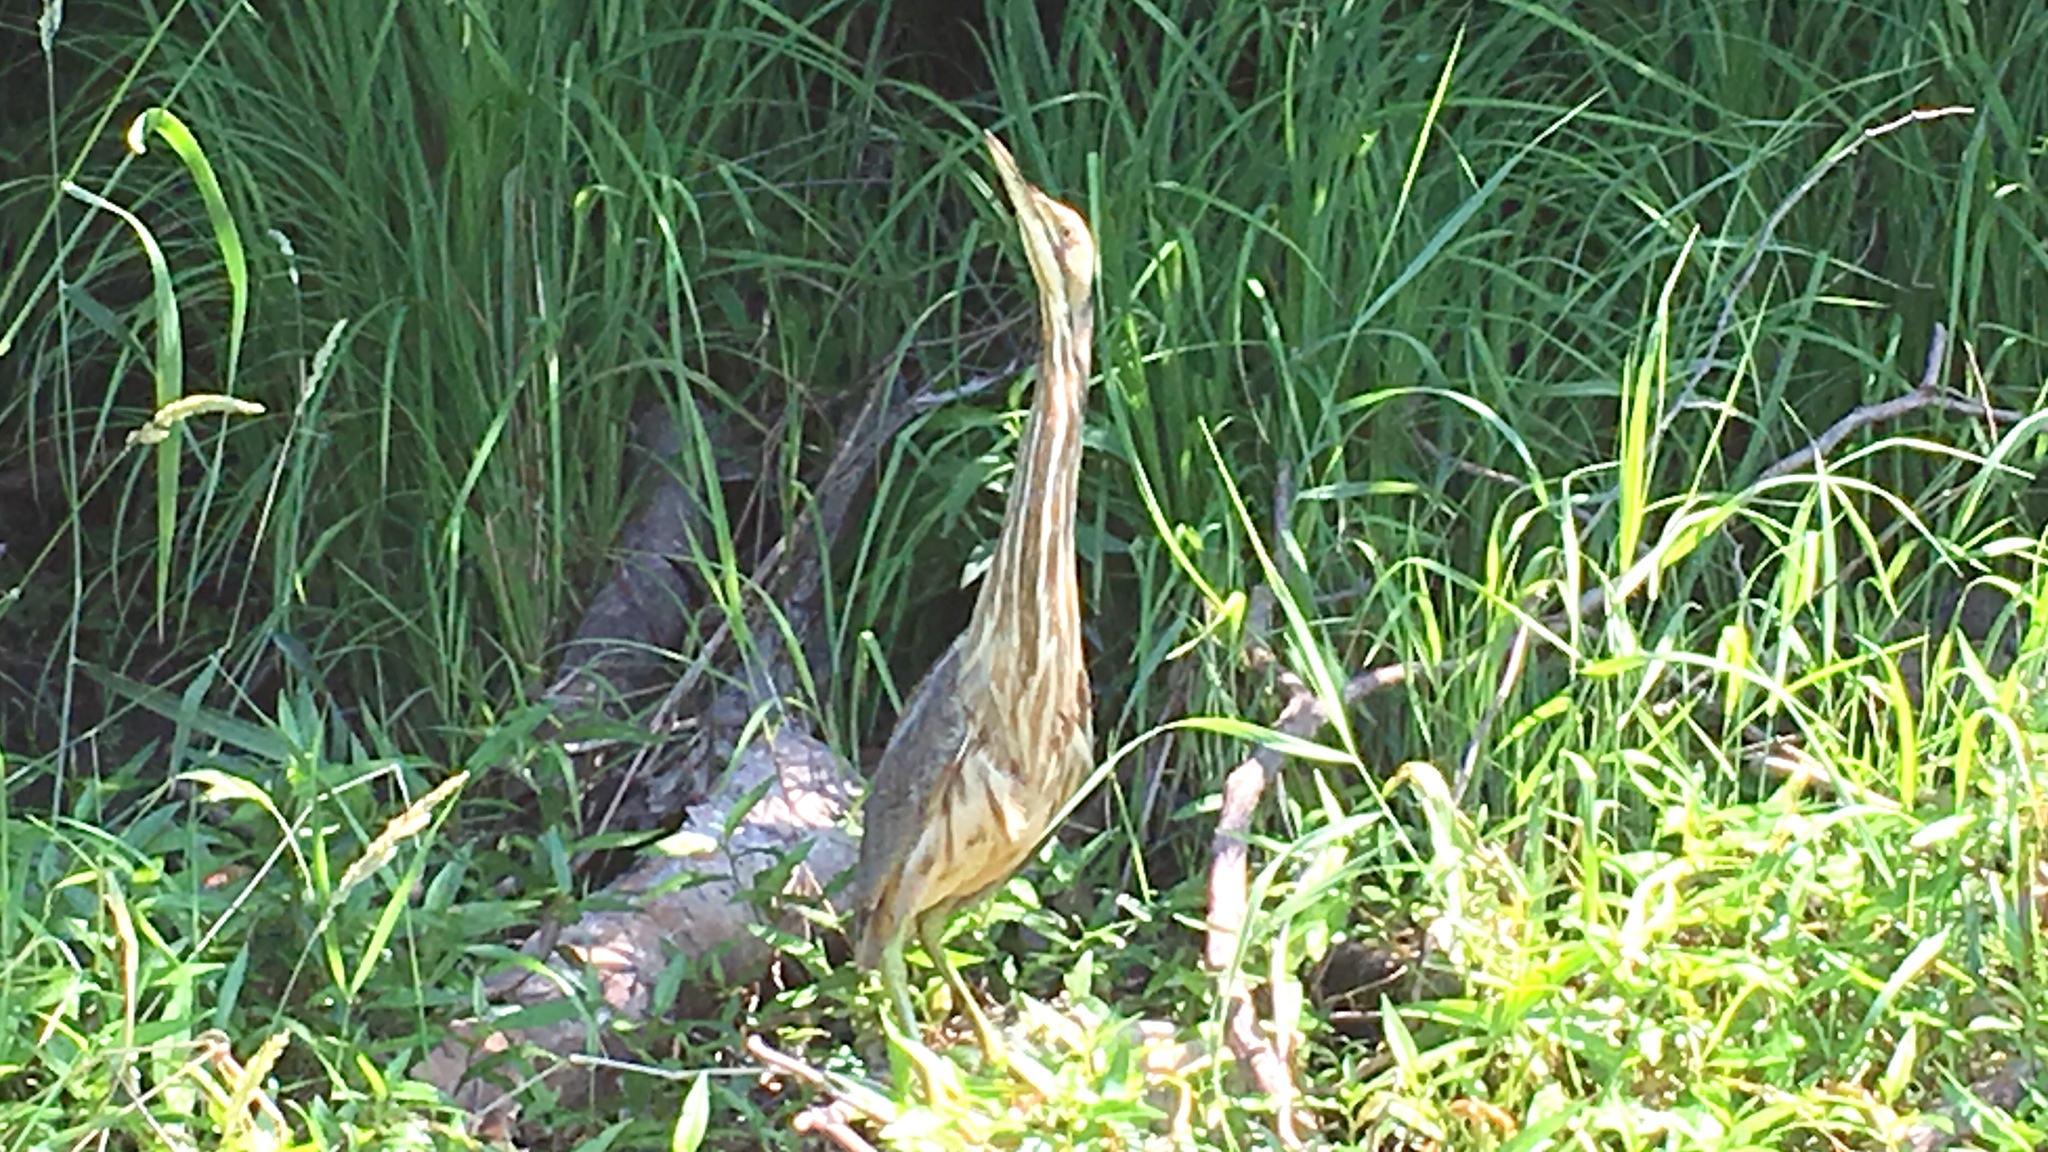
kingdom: Animalia
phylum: Chordata
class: Aves
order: Pelecaniformes
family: Ardeidae
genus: Botaurus
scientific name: Botaurus lentiginosus
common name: American bittern
